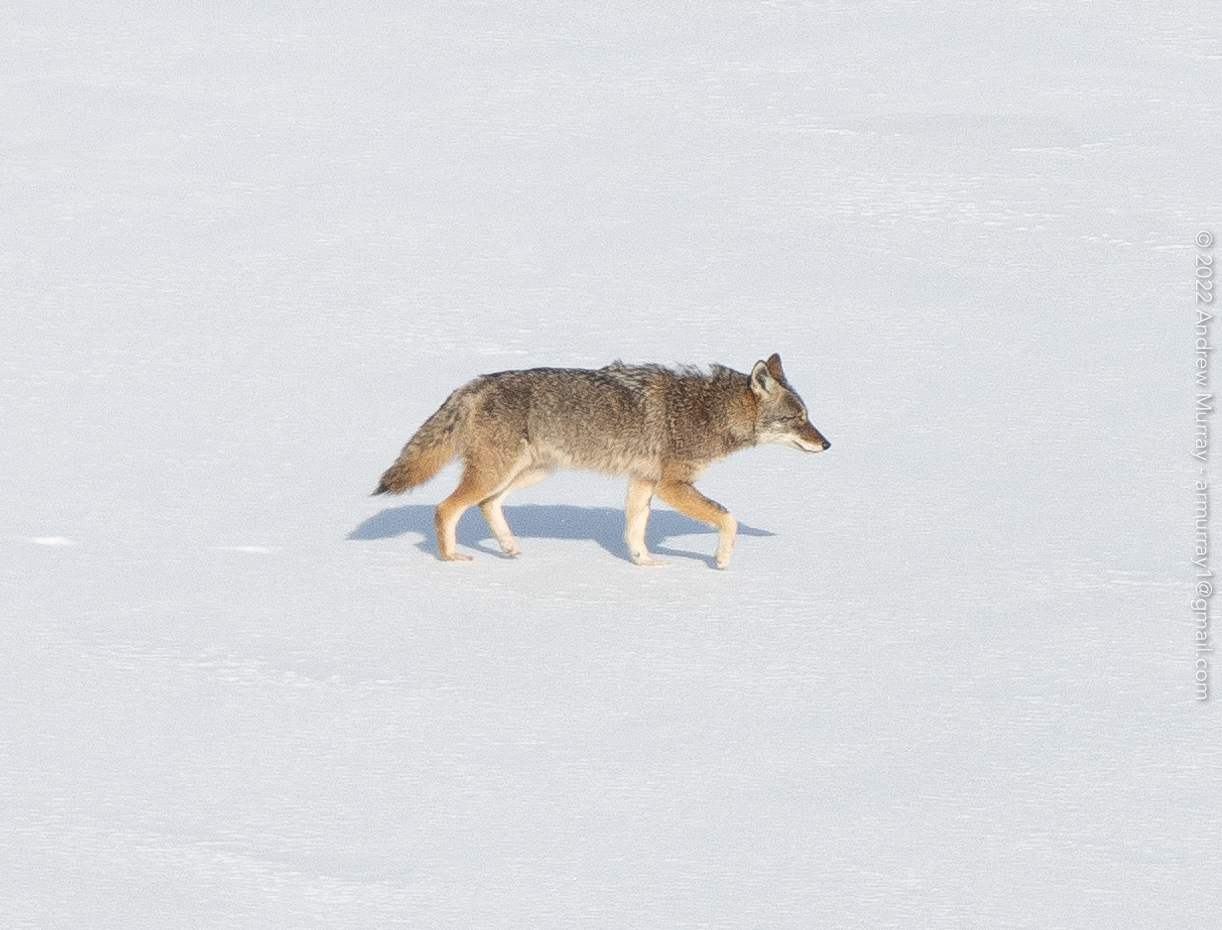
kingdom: Animalia
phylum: Chordata
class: Mammalia
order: Carnivora
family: Canidae
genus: Canis
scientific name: Canis latrans
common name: Coyote
